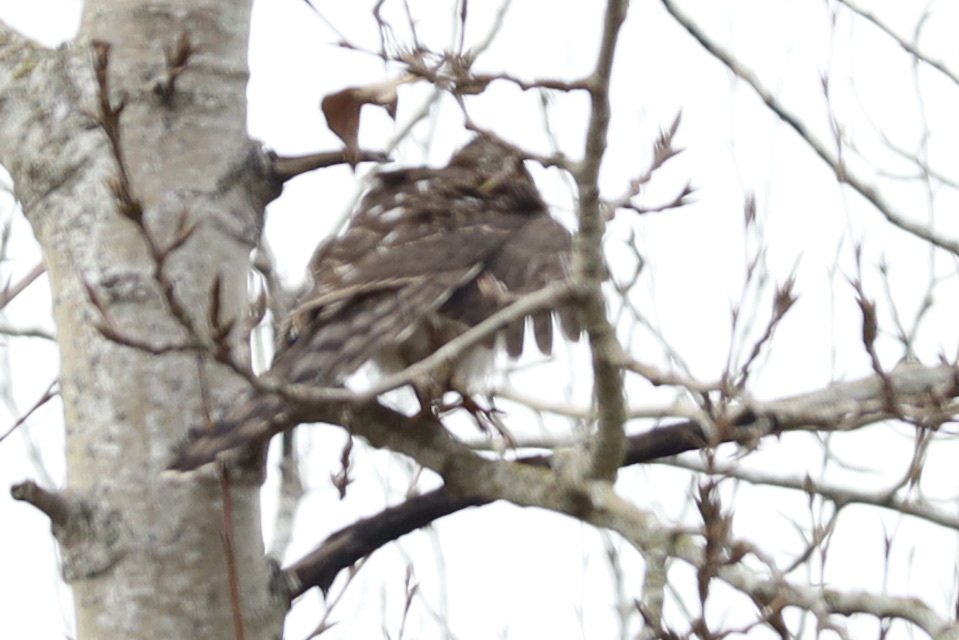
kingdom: Animalia
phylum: Chordata
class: Aves
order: Accipitriformes
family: Accipitridae
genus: Accipiter
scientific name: Accipiter cooperii
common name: Cooper's hawk
